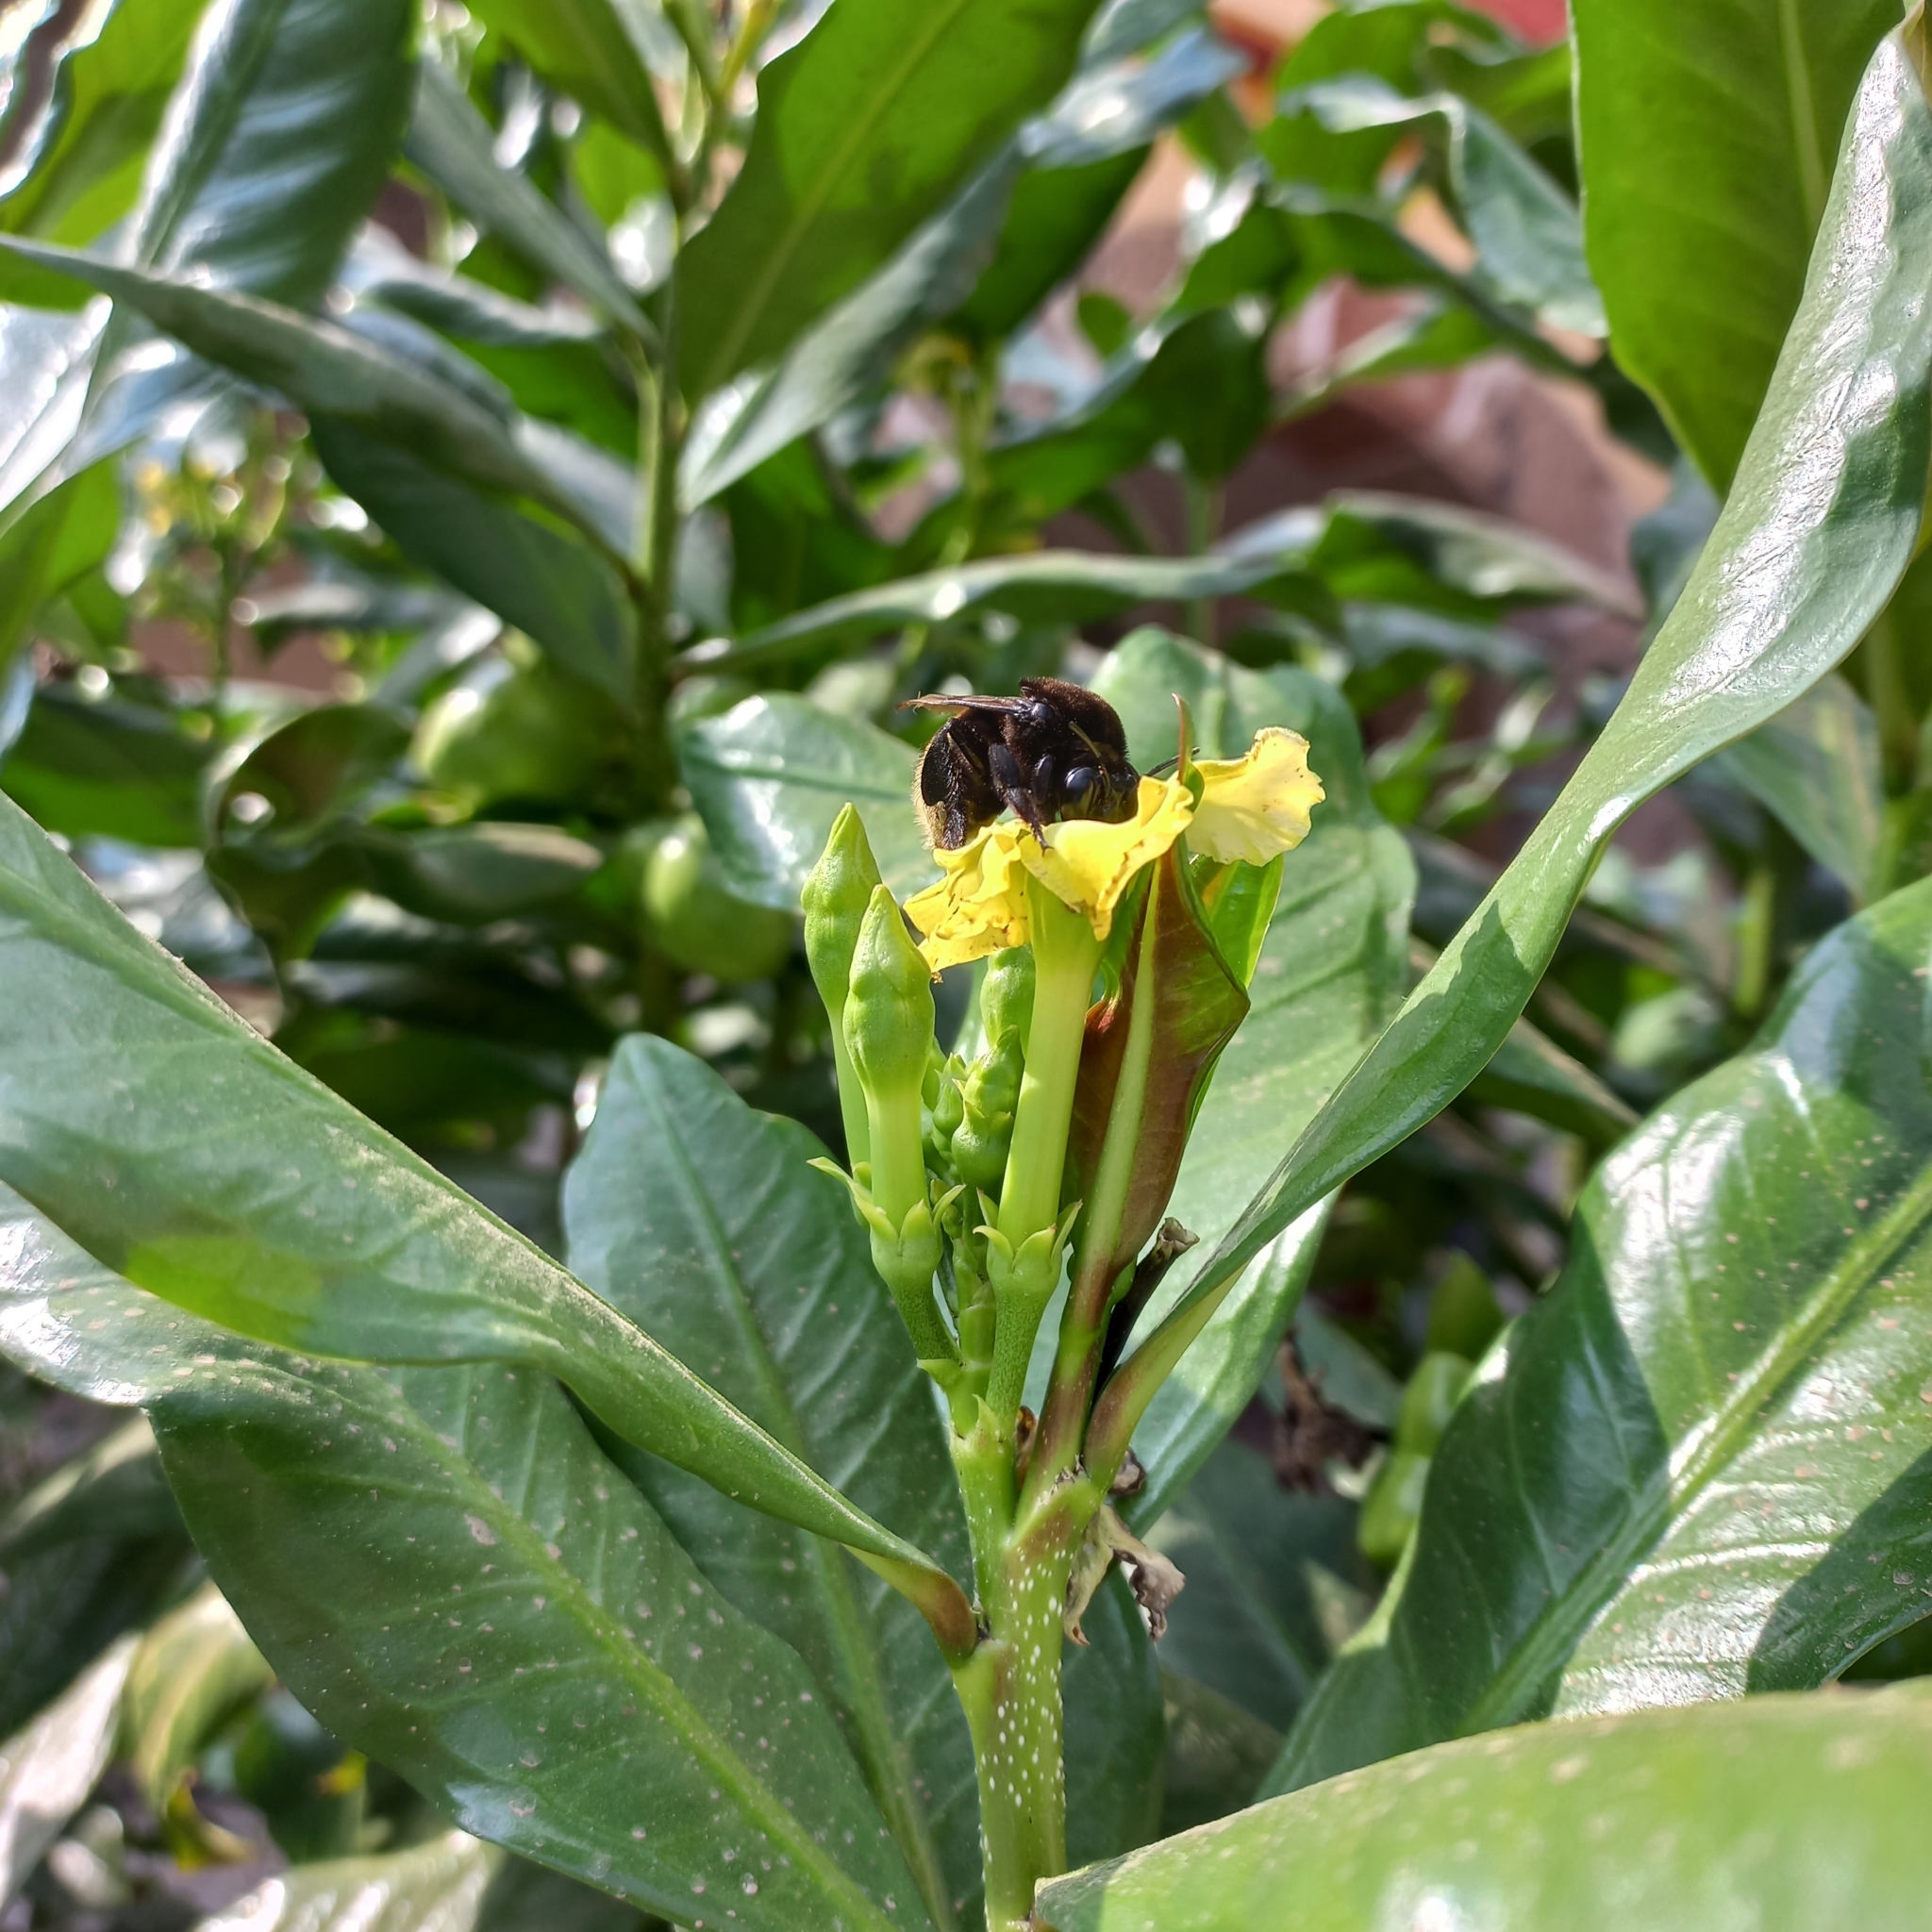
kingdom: Animalia
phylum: Arthropoda
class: Insecta
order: Hymenoptera
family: Apidae
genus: Eulaema
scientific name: Eulaema polychroma
